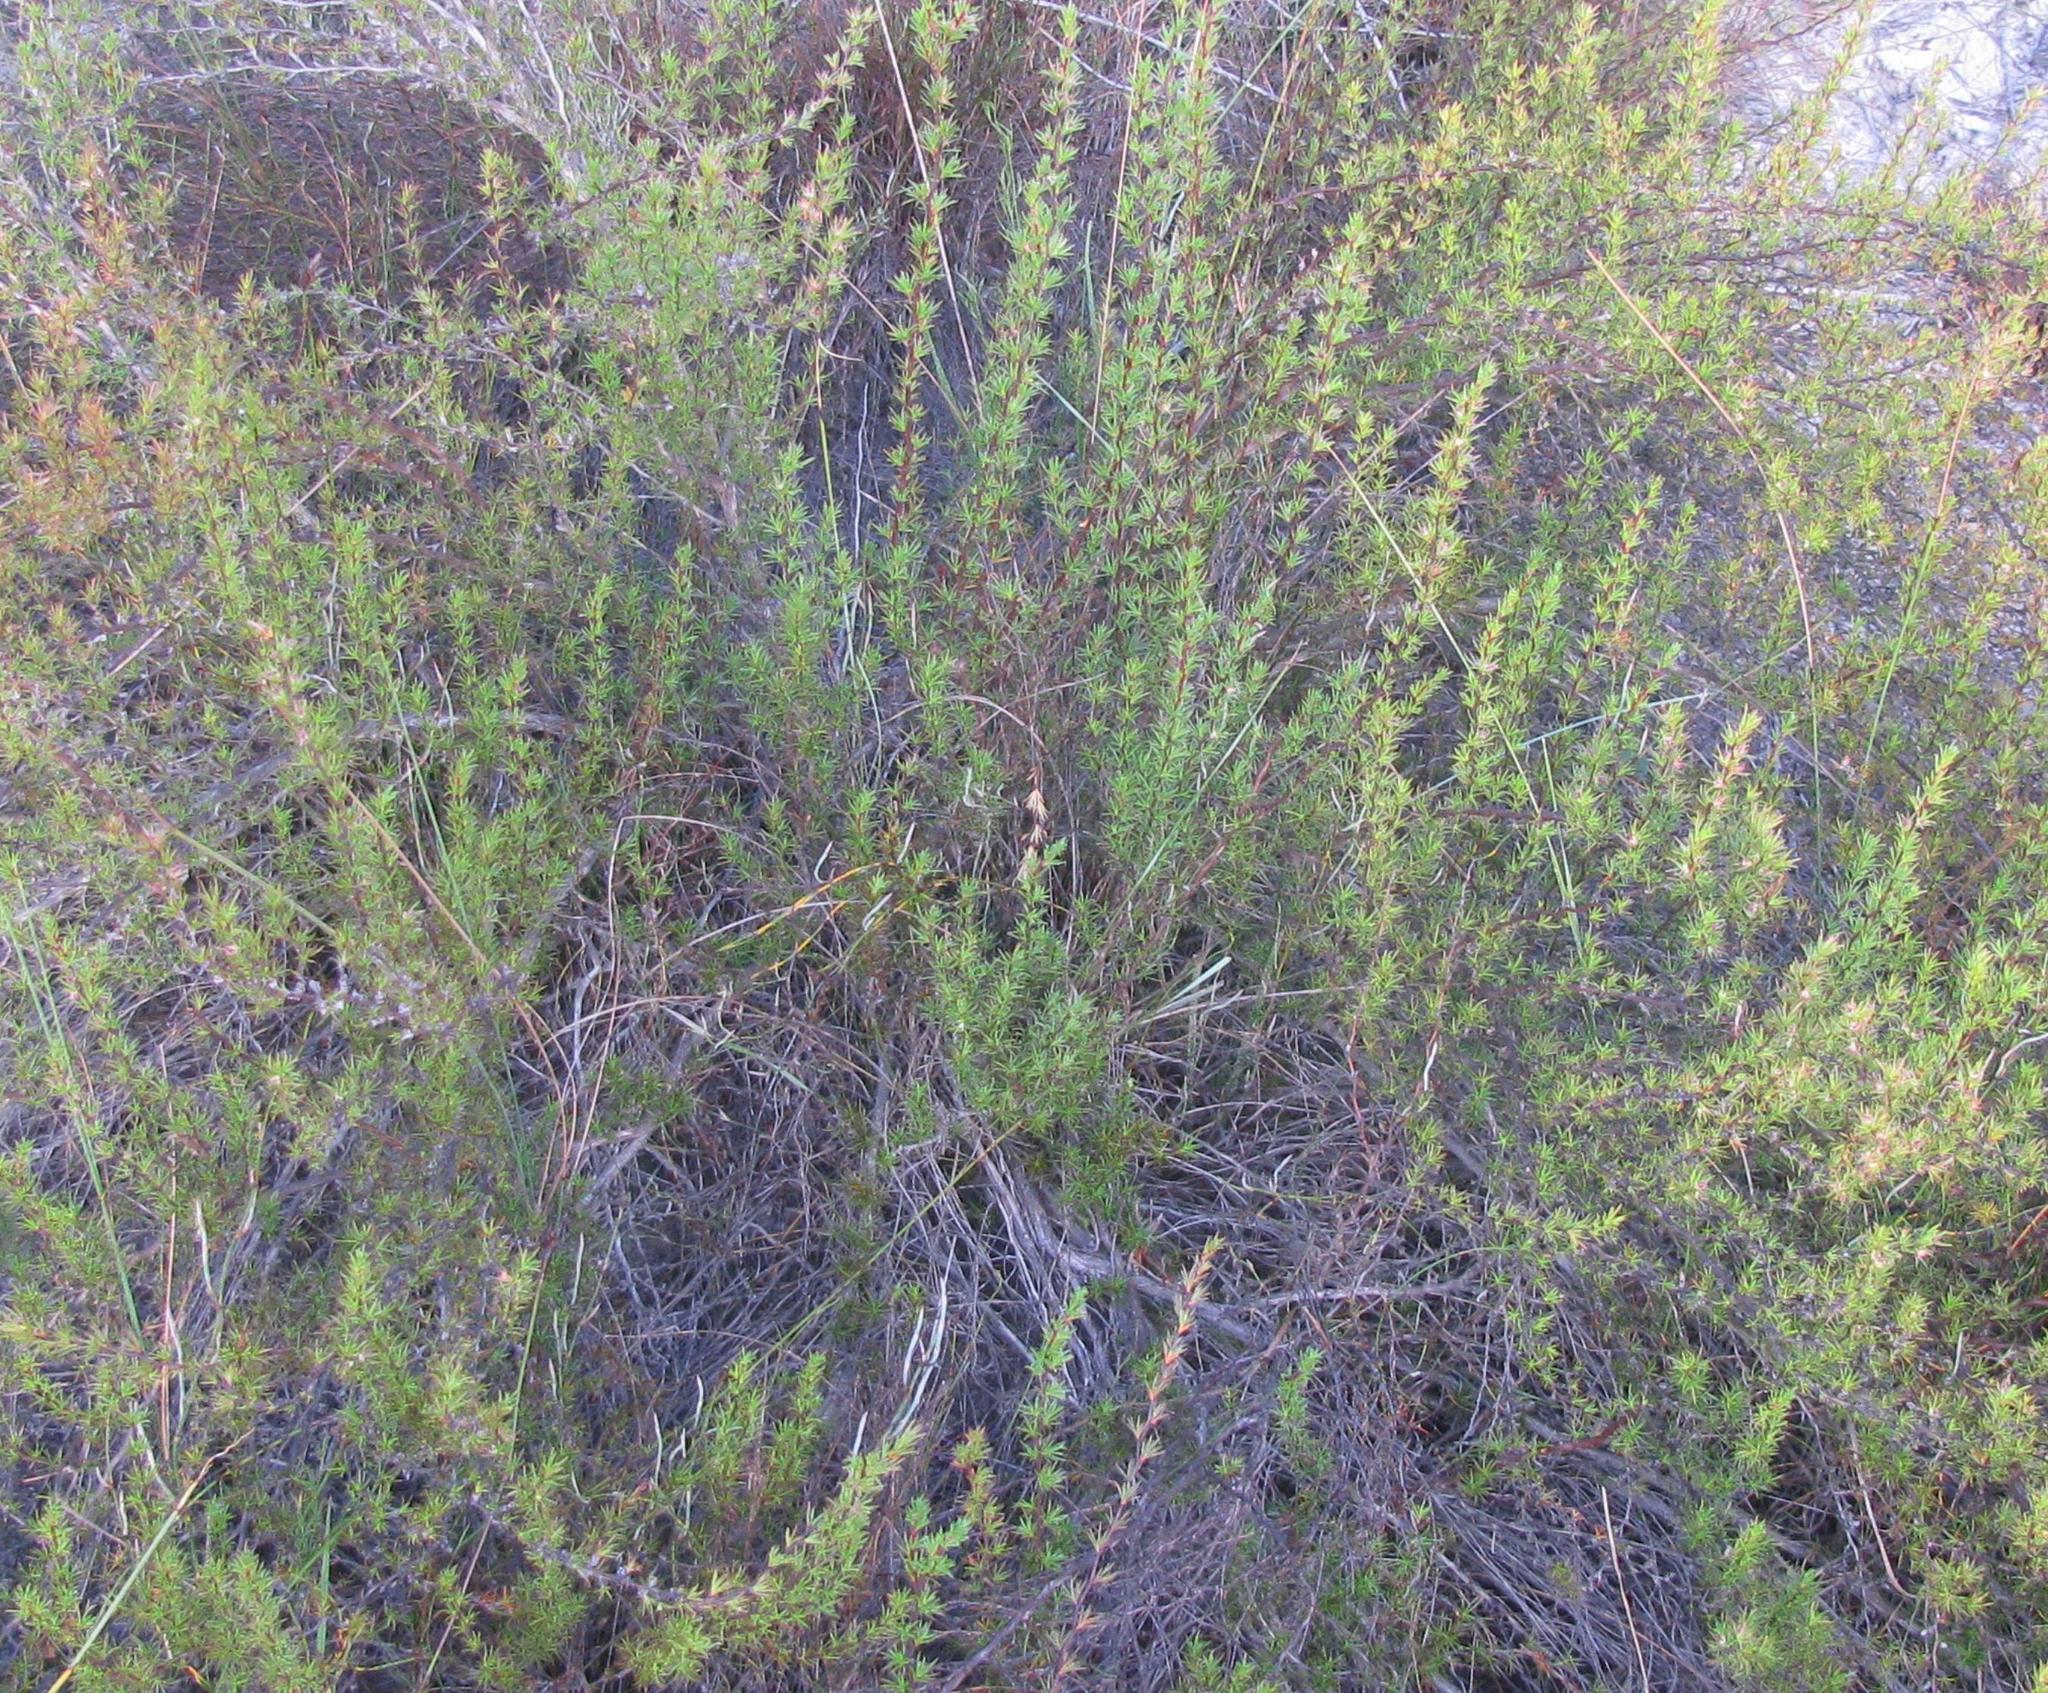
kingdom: Plantae
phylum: Tracheophyta
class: Magnoliopsida
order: Rosales
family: Rosaceae
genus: Cliffortia
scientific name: Cliffortia pterocarpa
